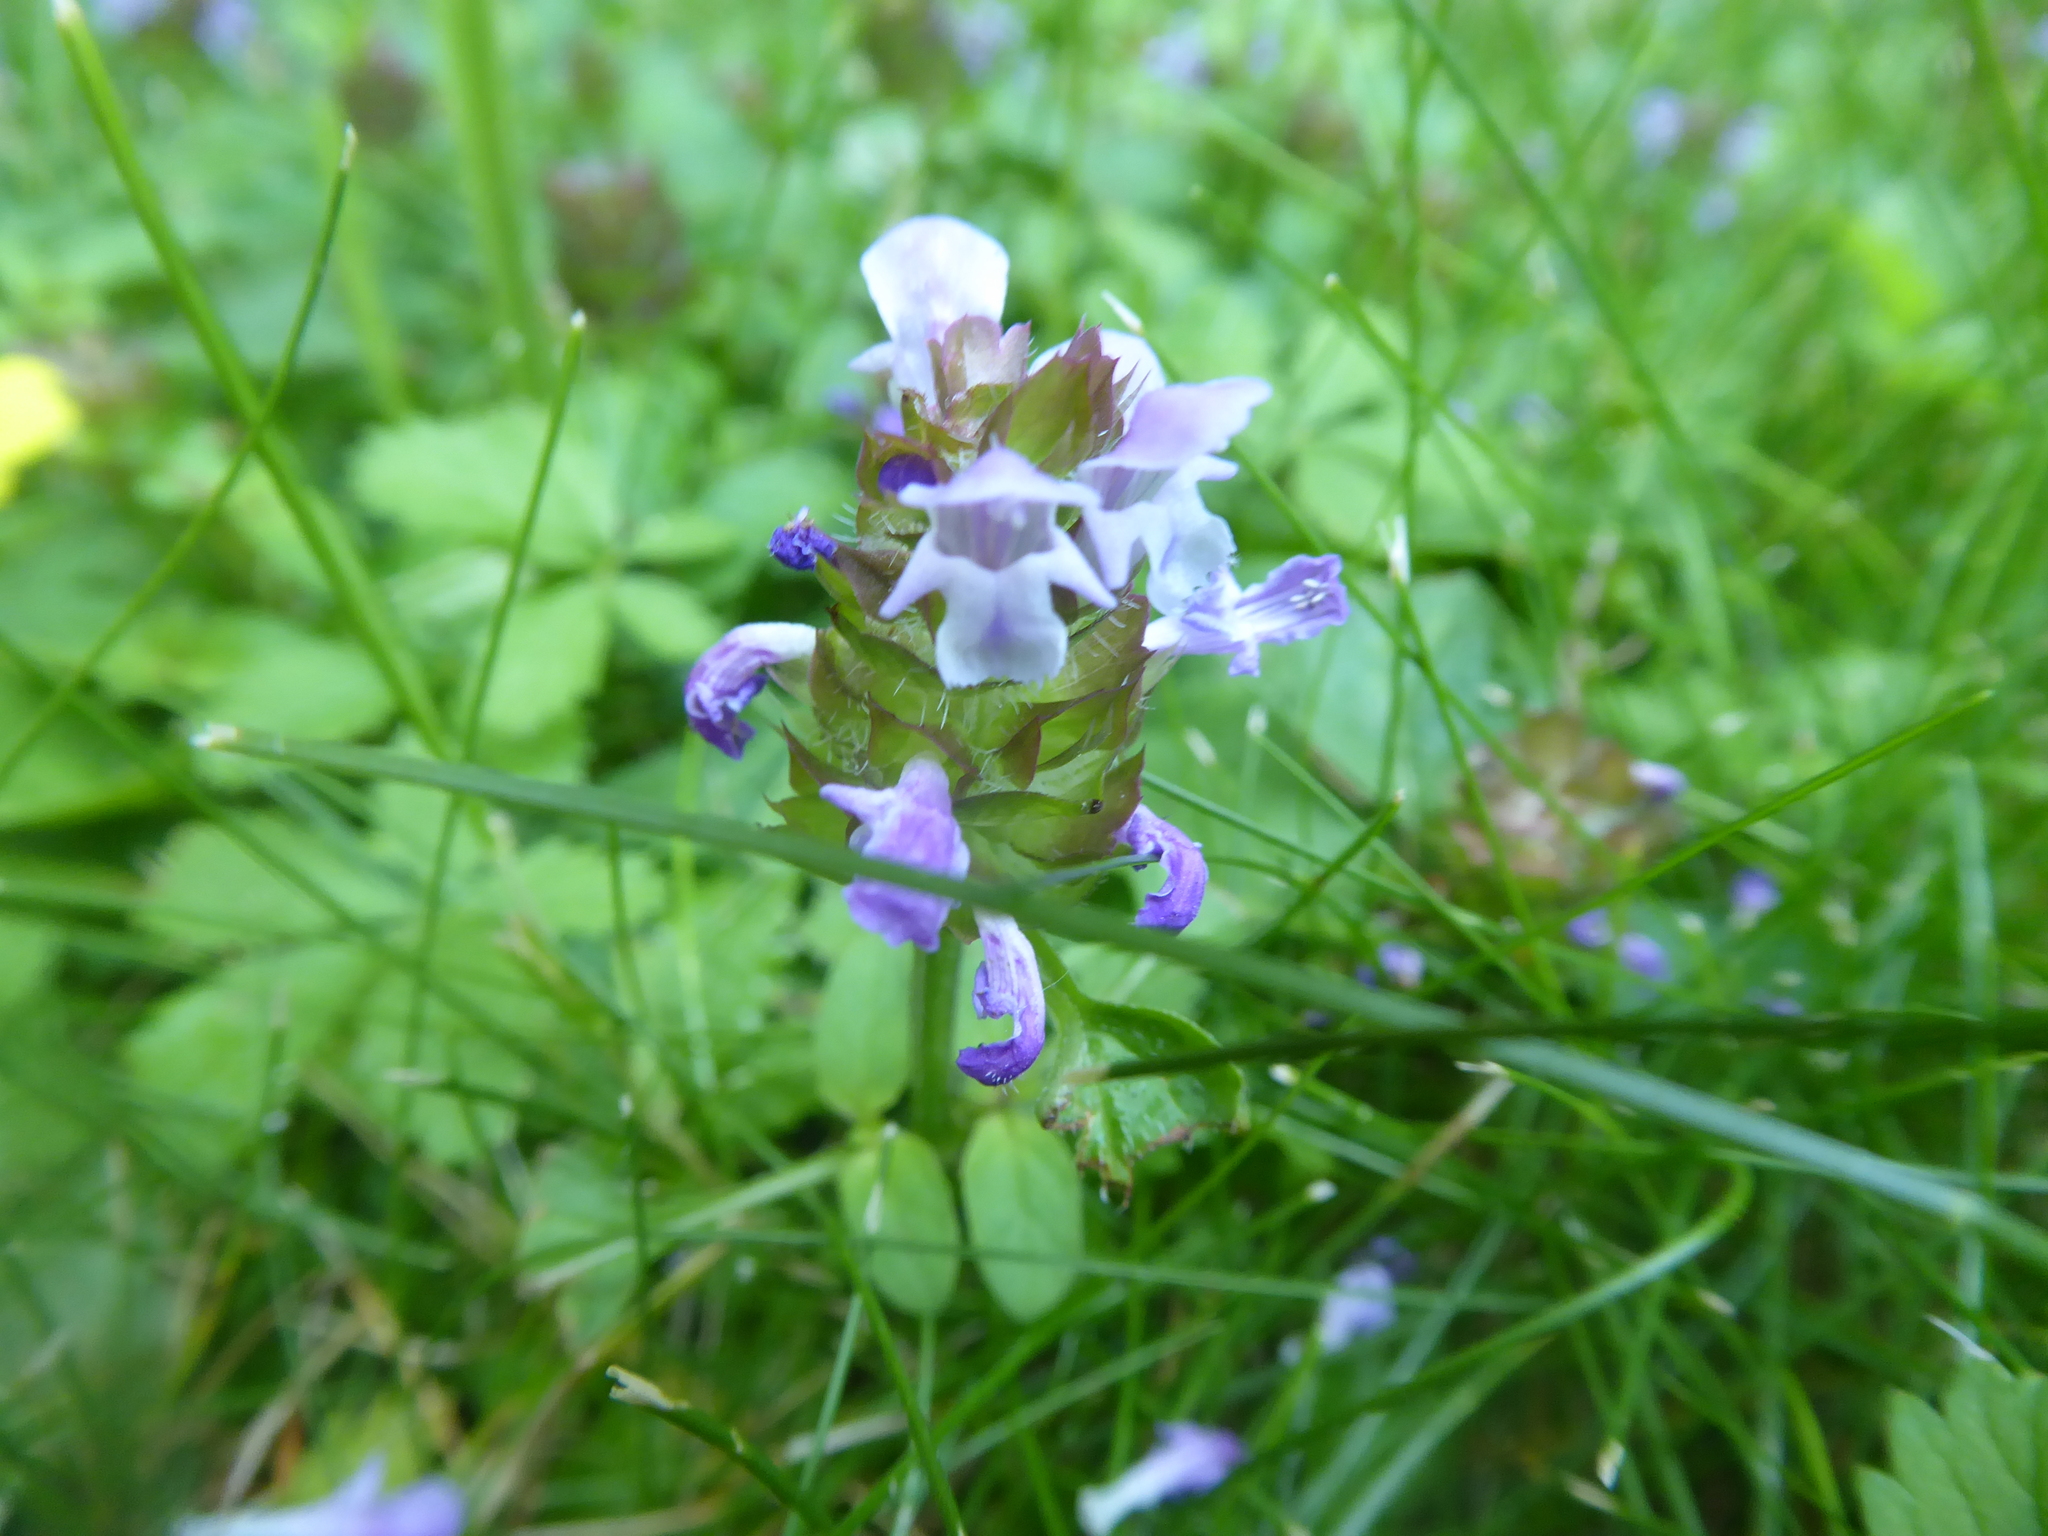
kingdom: Plantae
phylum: Tracheophyta
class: Magnoliopsida
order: Lamiales
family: Lamiaceae
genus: Prunella
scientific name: Prunella vulgaris
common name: Heal-all
